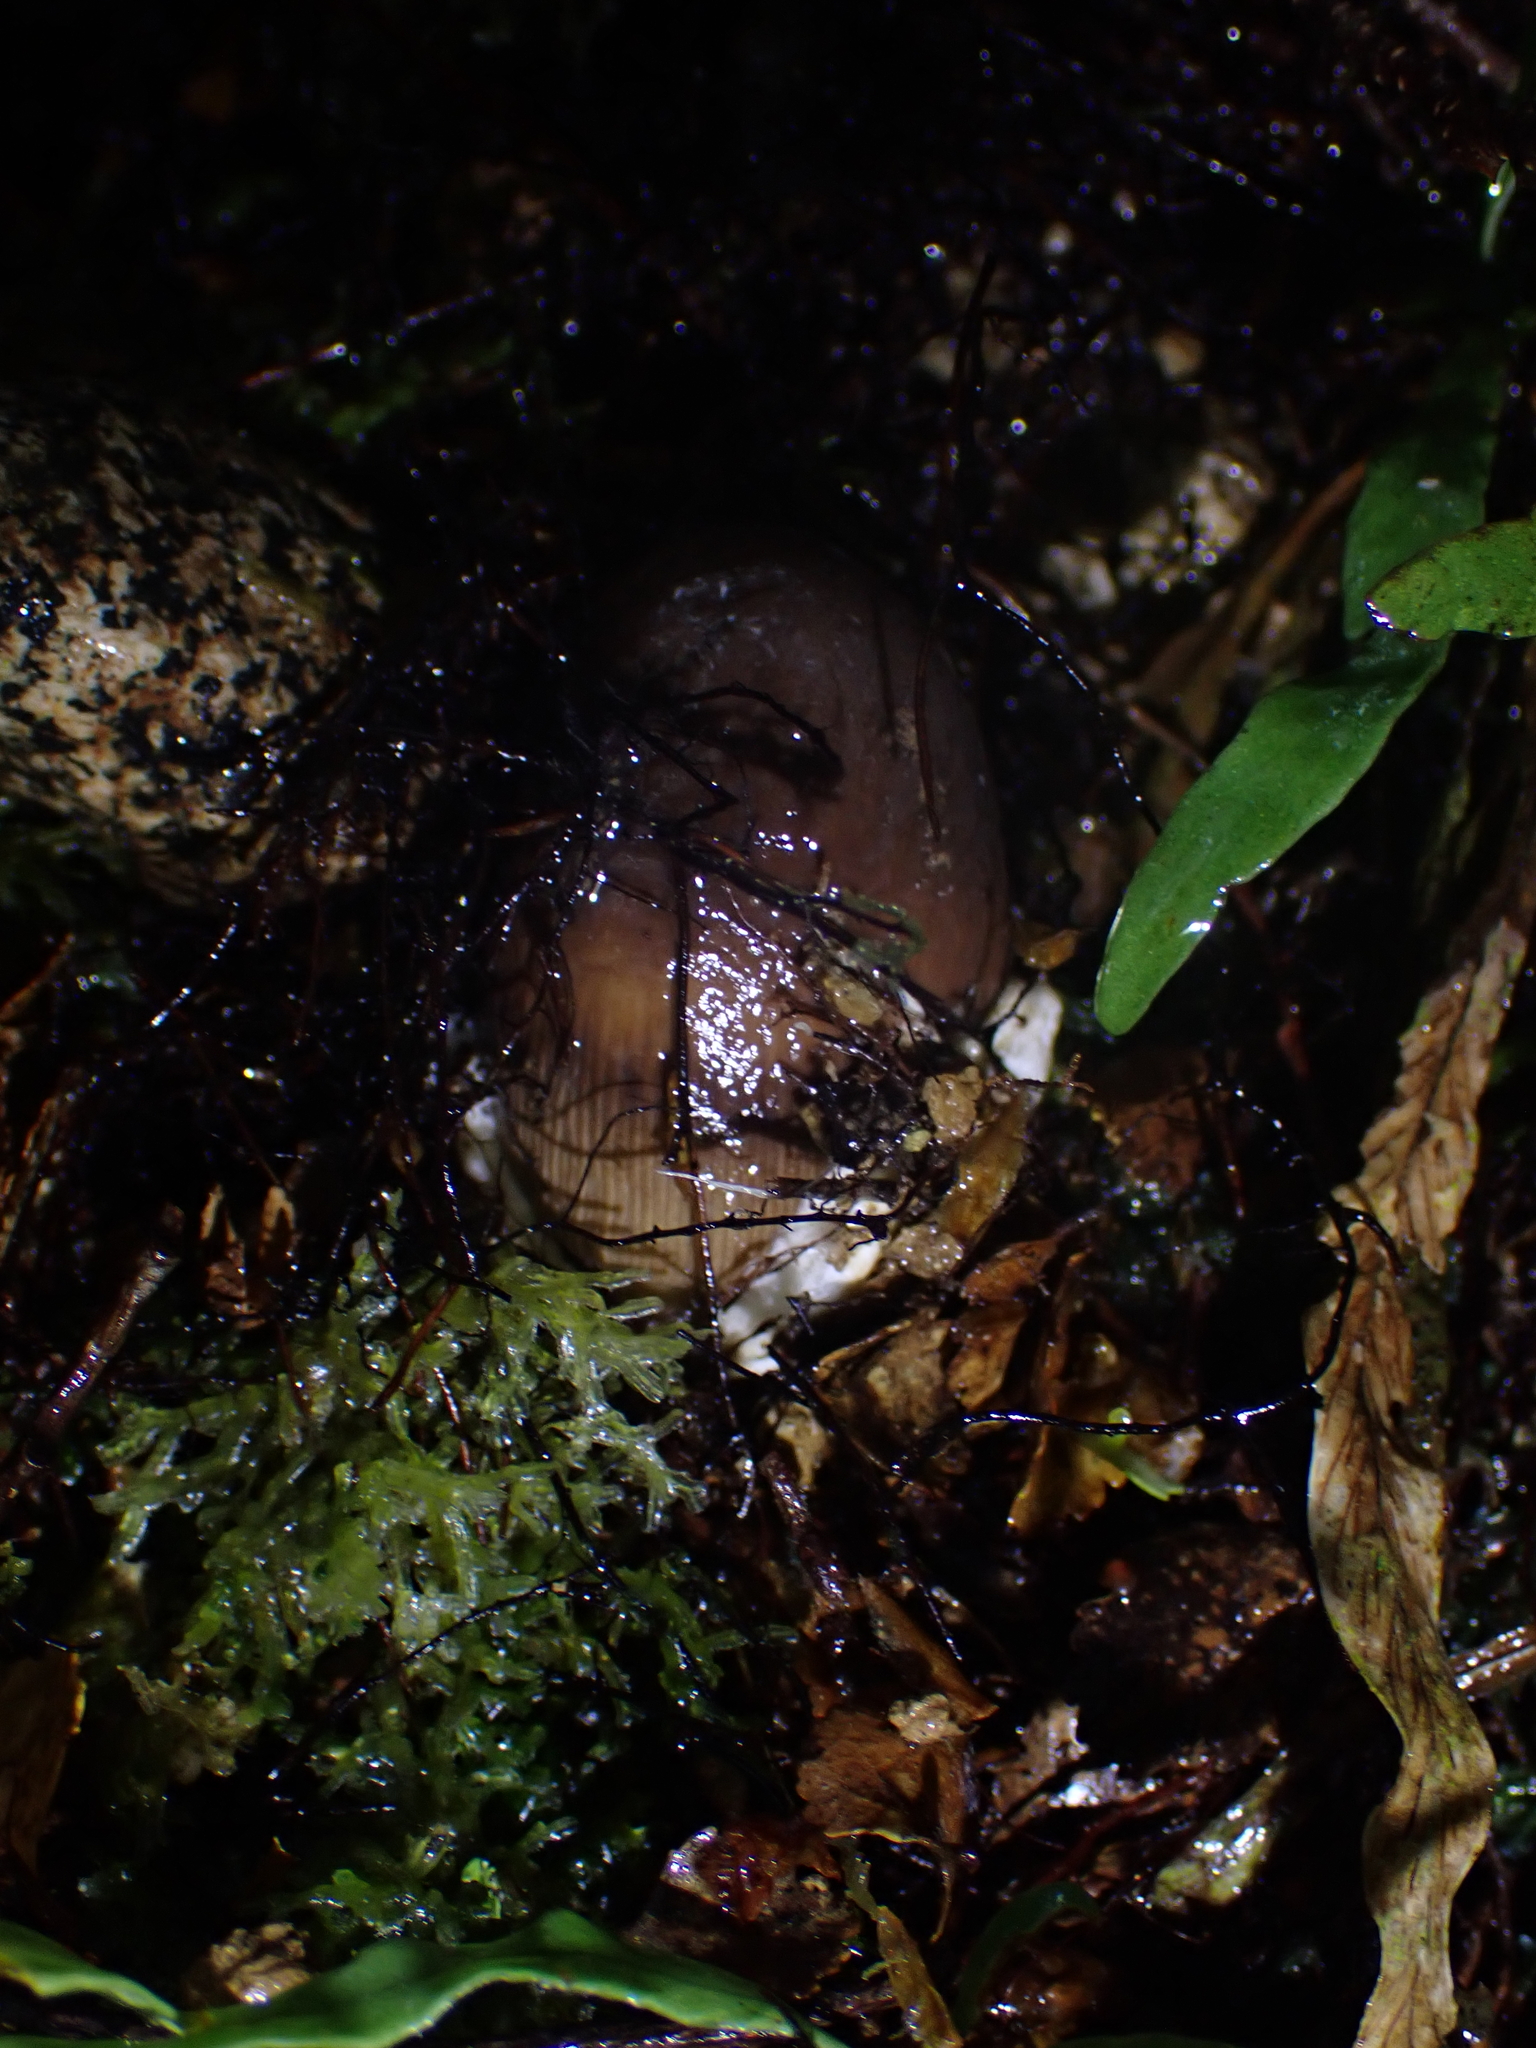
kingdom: Fungi
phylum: Basidiomycota
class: Agaricomycetes
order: Agaricales
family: Amanitaceae
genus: Amanita
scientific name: Amanita pekeoides
